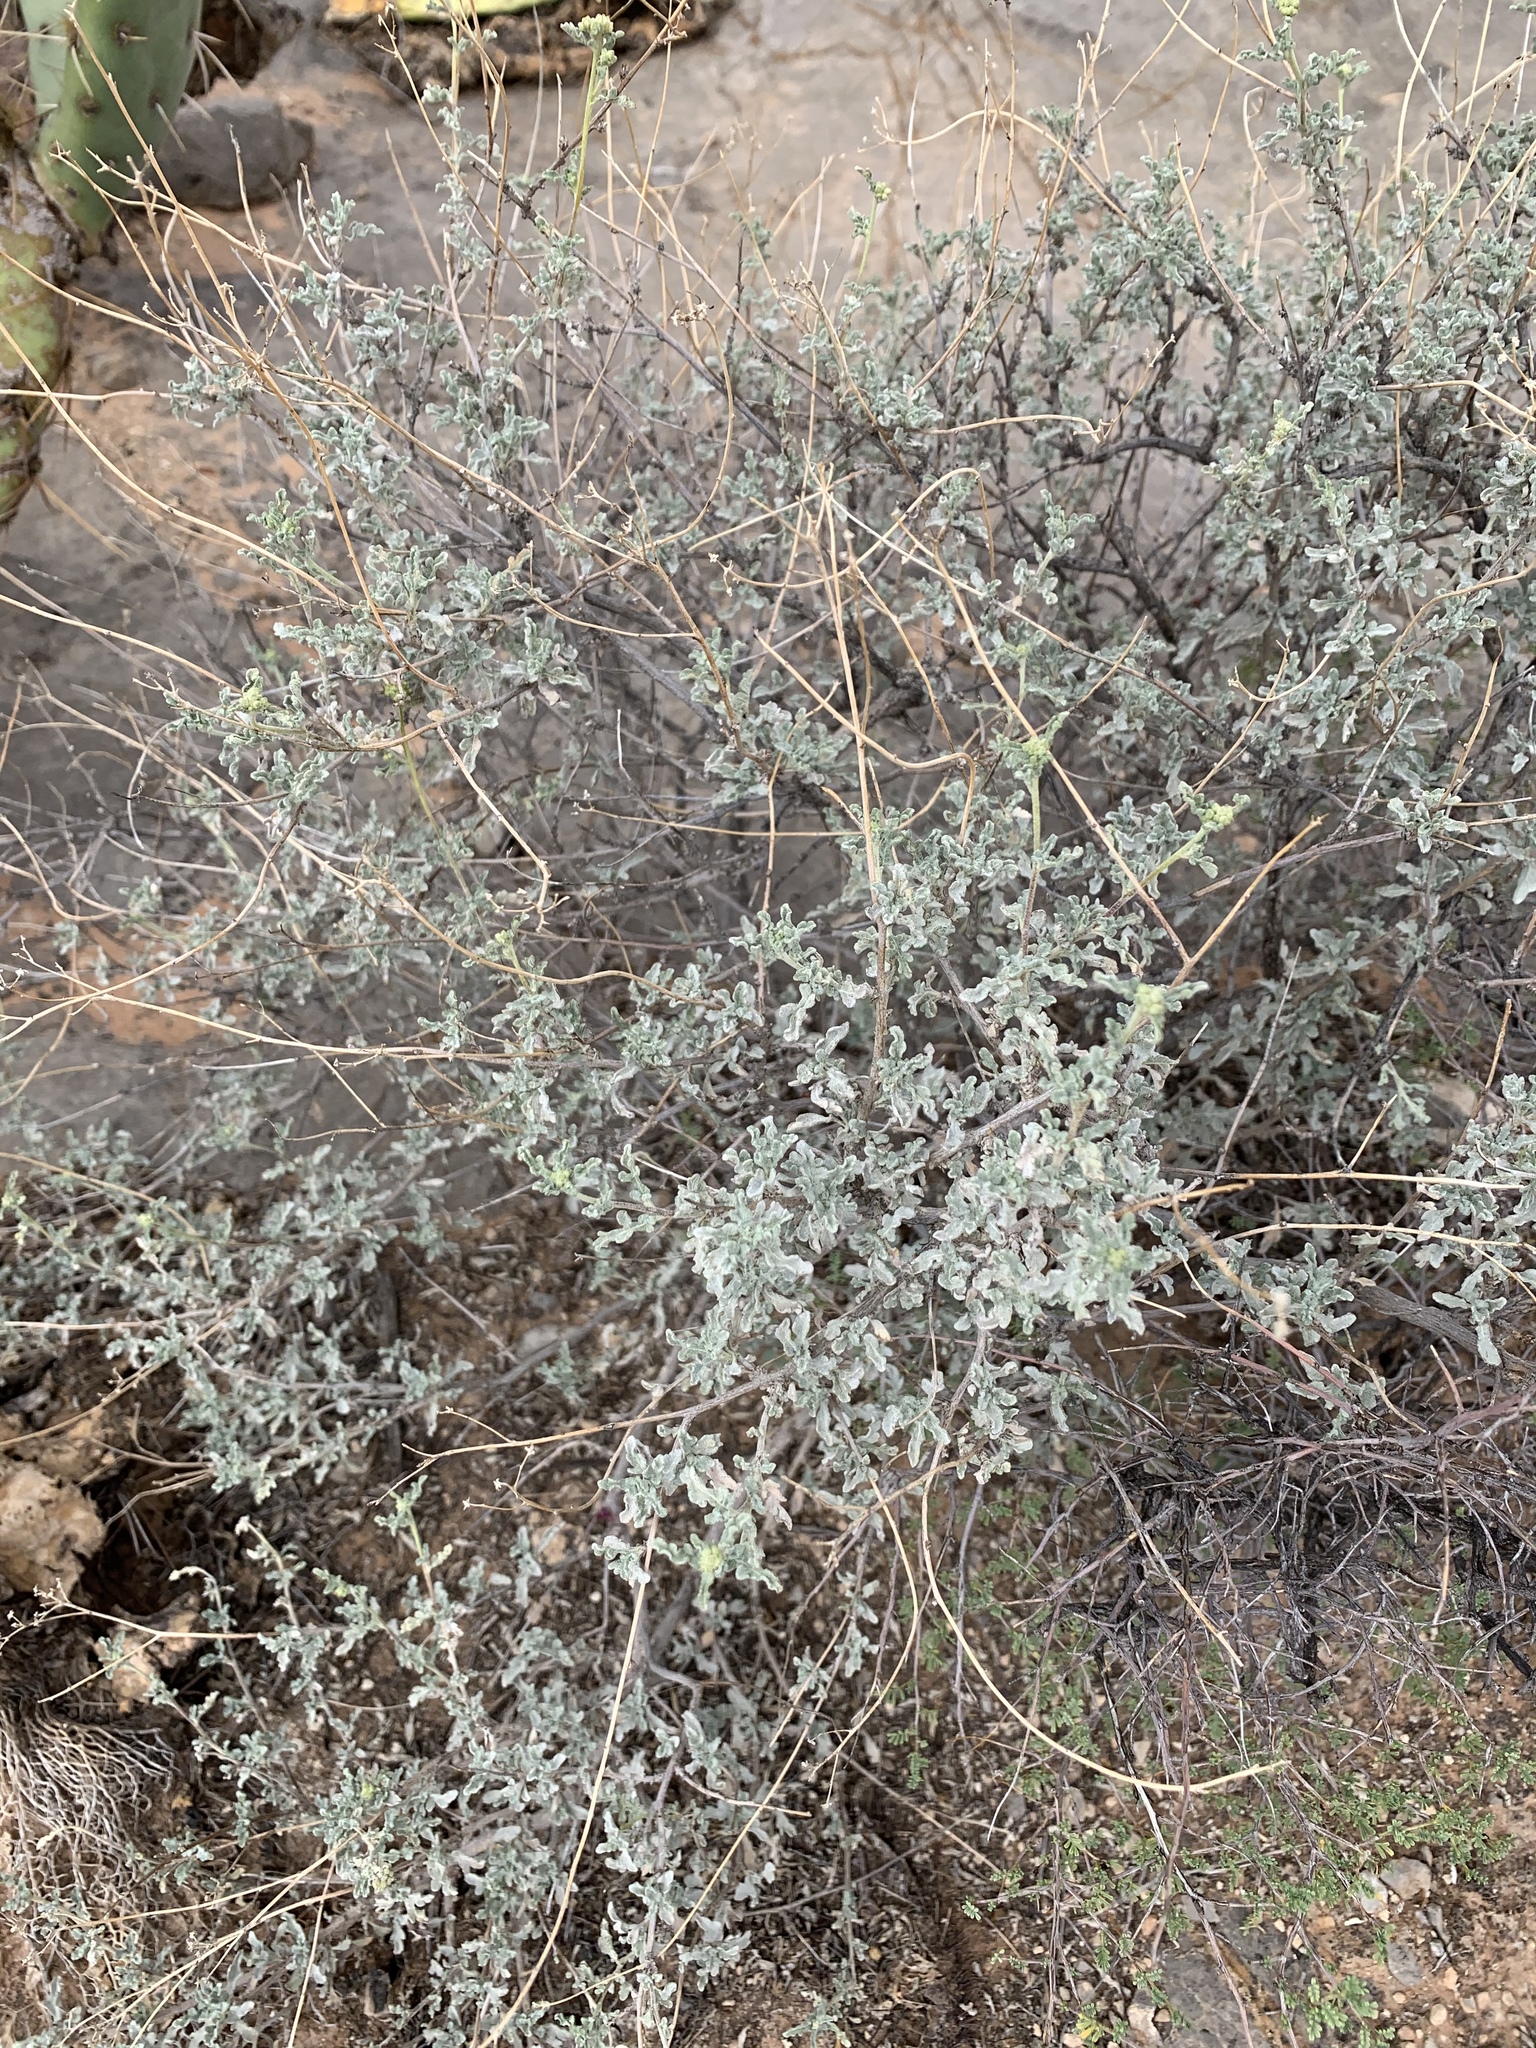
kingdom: Plantae
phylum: Tracheophyta
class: Magnoliopsida
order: Asterales
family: Asteraceae
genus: Parthenium
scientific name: Parthenium incanum
